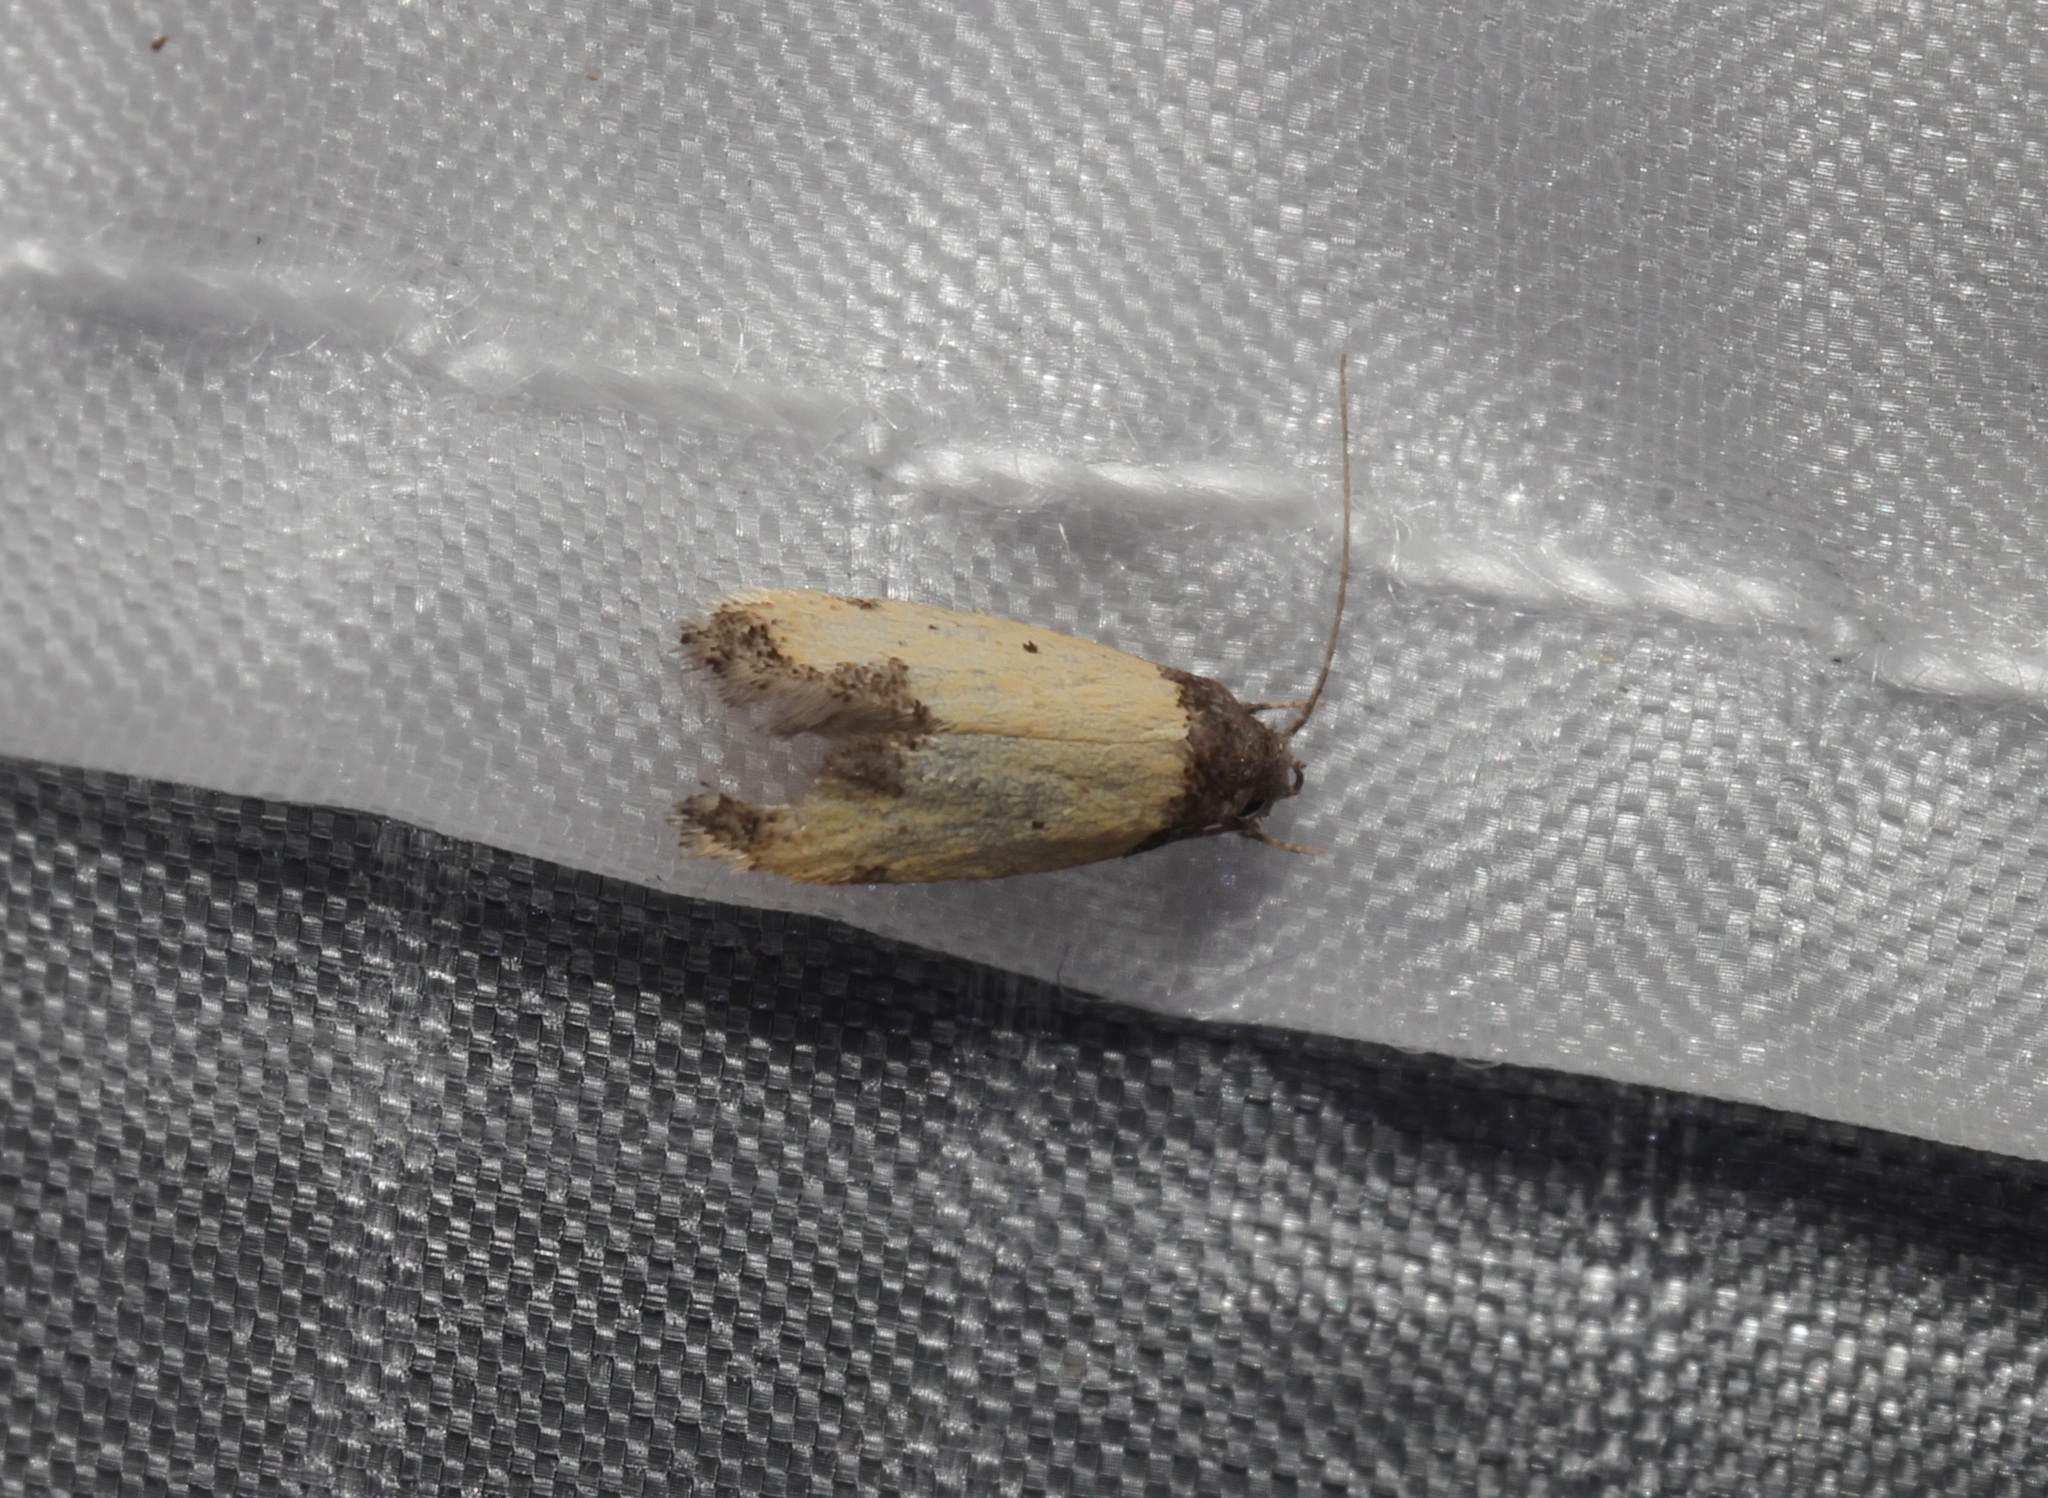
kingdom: Animalia
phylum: Arthropoda
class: Insecta
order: Lepidoptera
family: Oecophoridae
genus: Tyrolimnas
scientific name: Tyrolimnas anthraconesa
